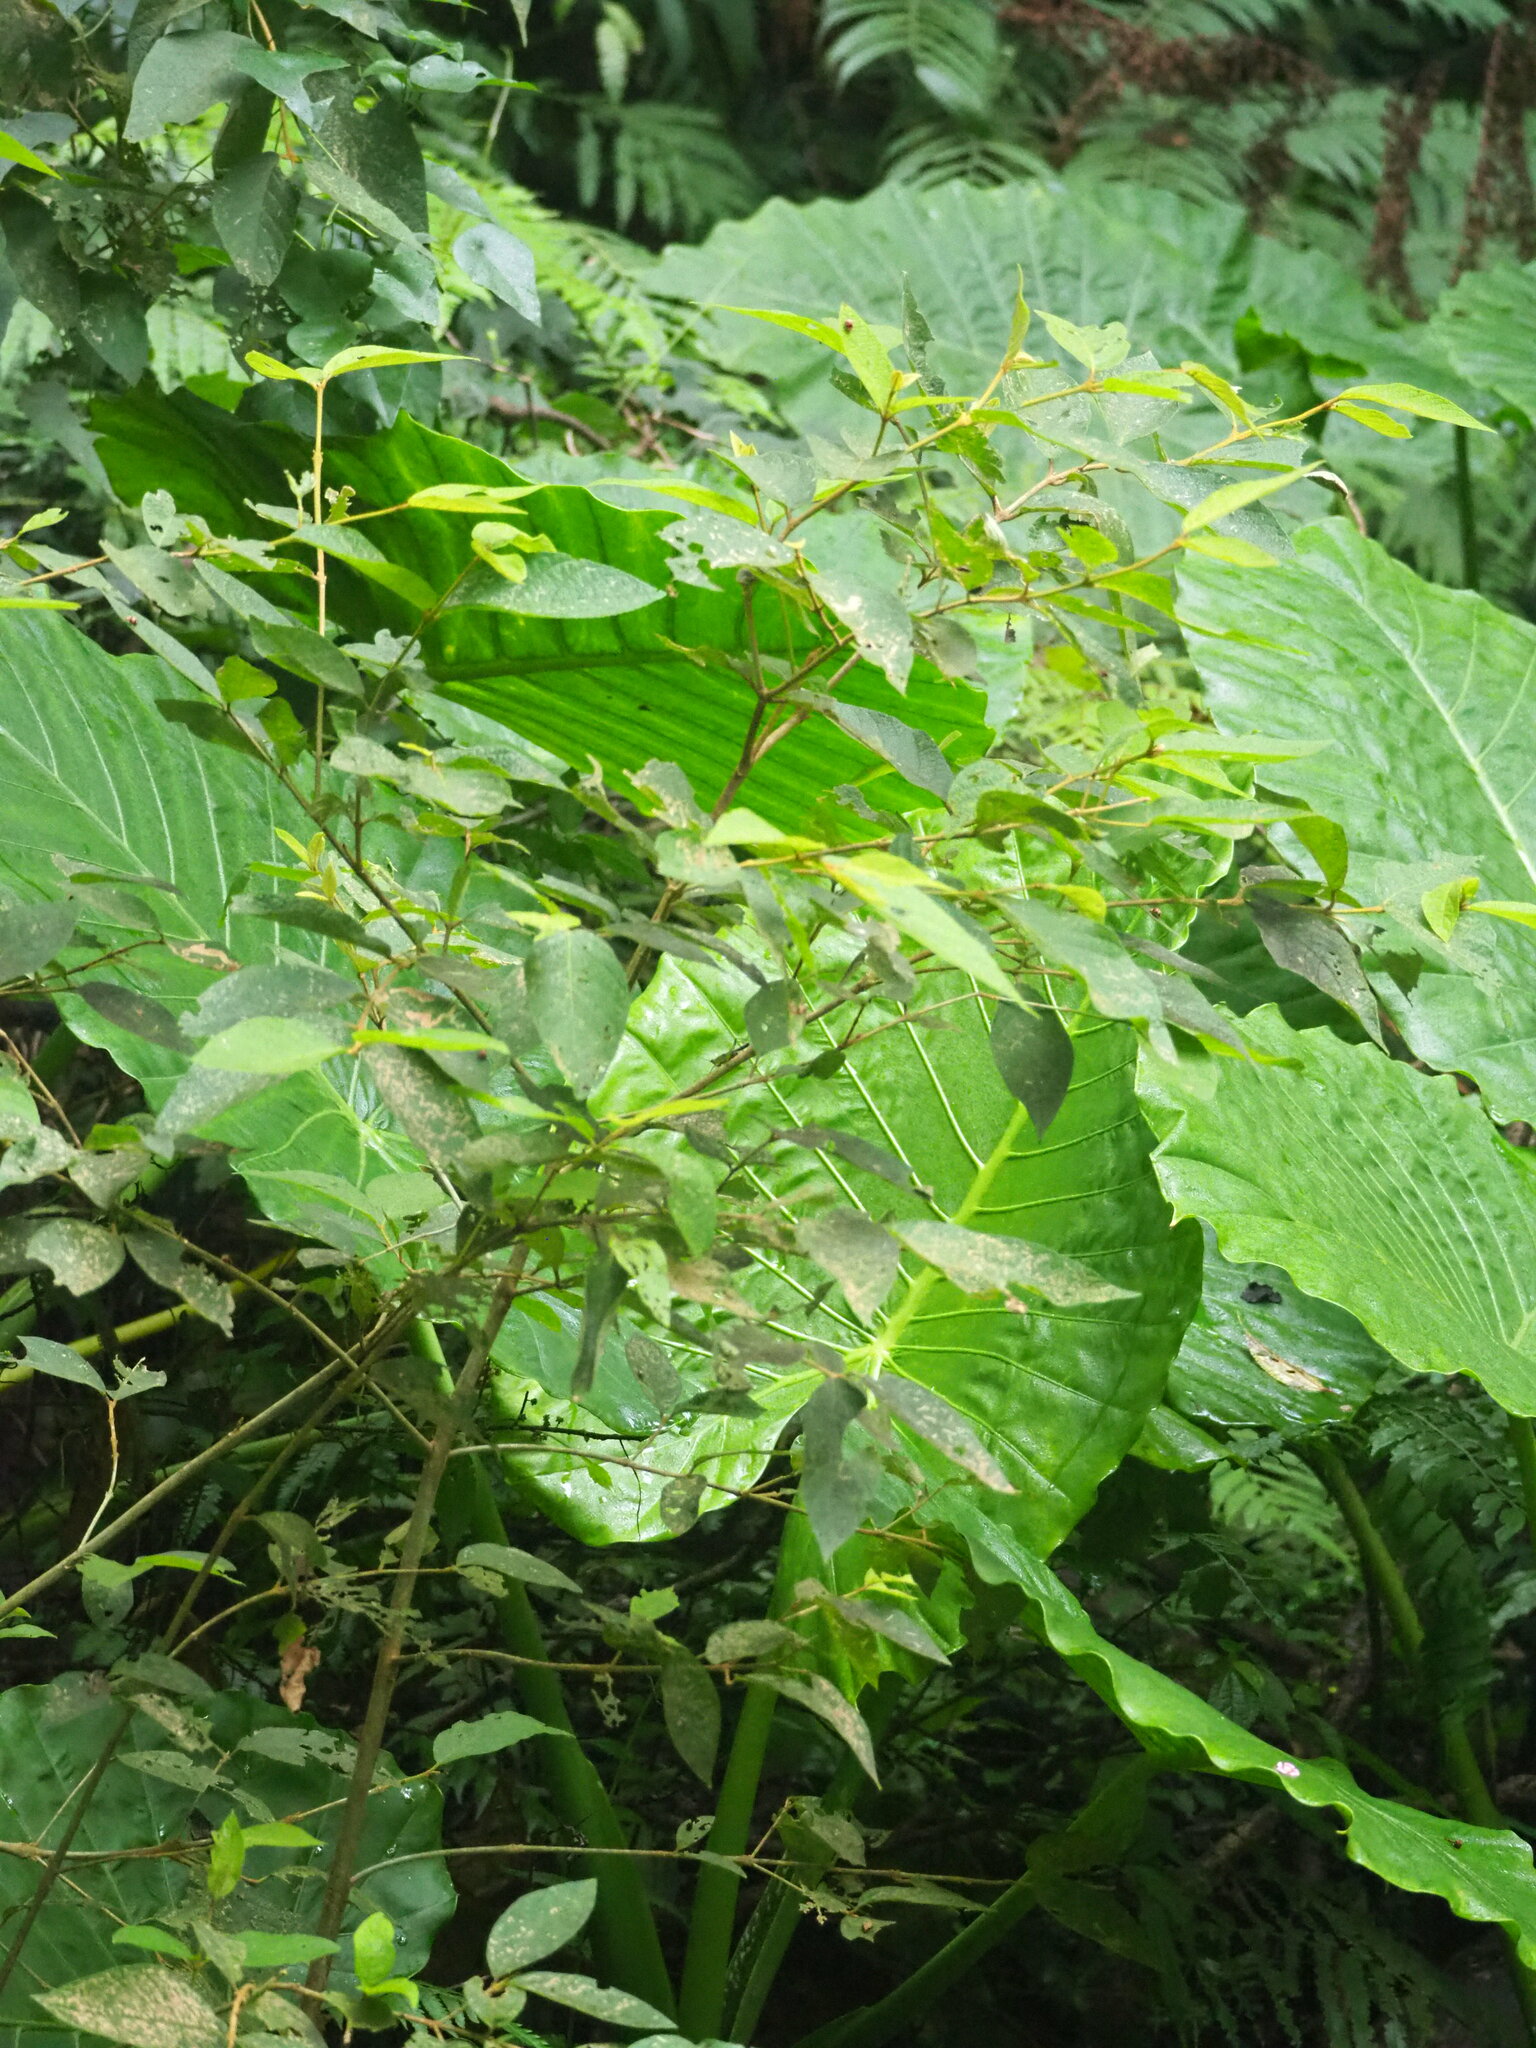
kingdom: Plantae
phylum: Tracheophyta
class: Magnoliopsida
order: Lamiales
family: Lamiaceae
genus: Callicarpa
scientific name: Callicarpa pedunculata
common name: Velvetleaf
